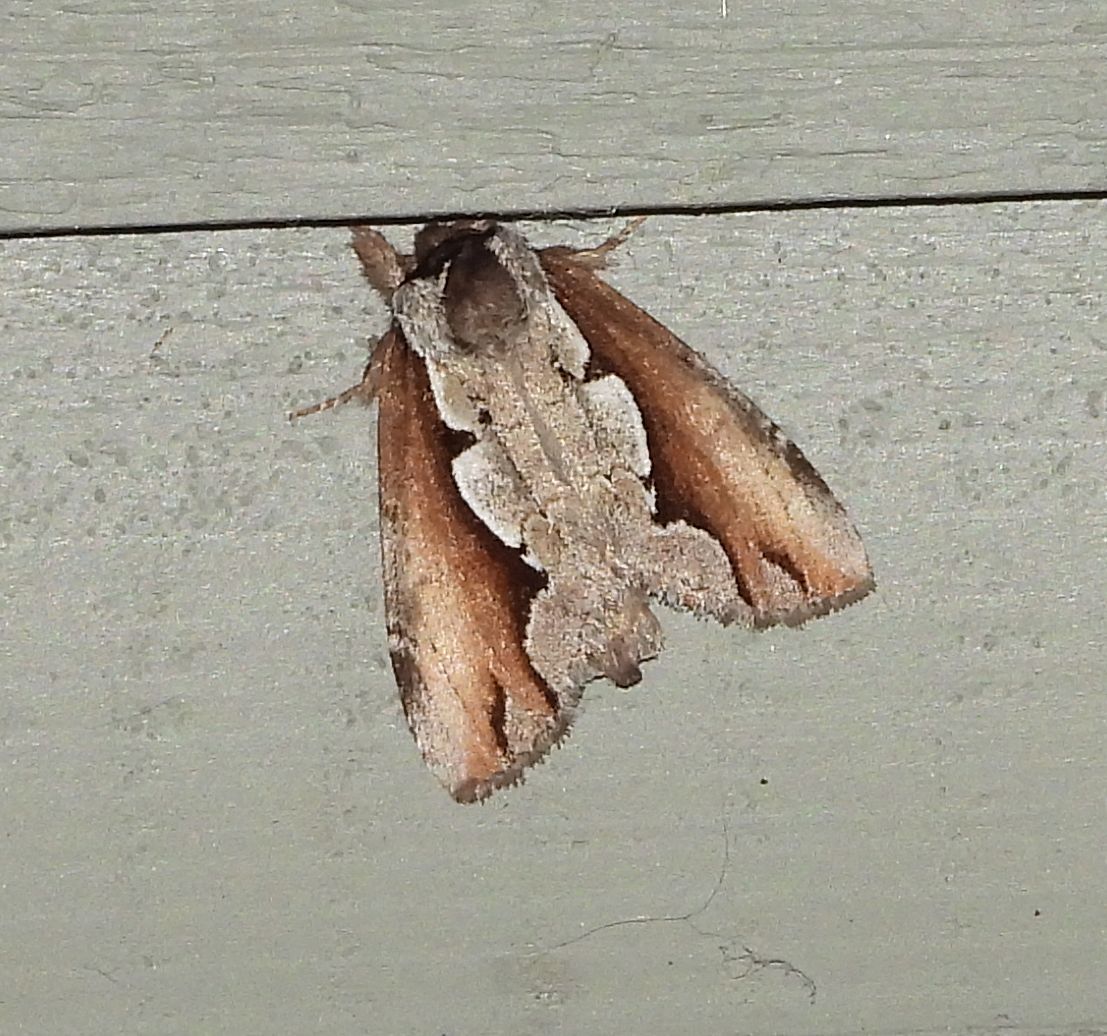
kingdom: Animalia
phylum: Arthropoda
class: Insecta
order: Lepidoptera
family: Notodontidae
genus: Nerice
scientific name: Nerice bidentata
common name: Double-toothed prominent
